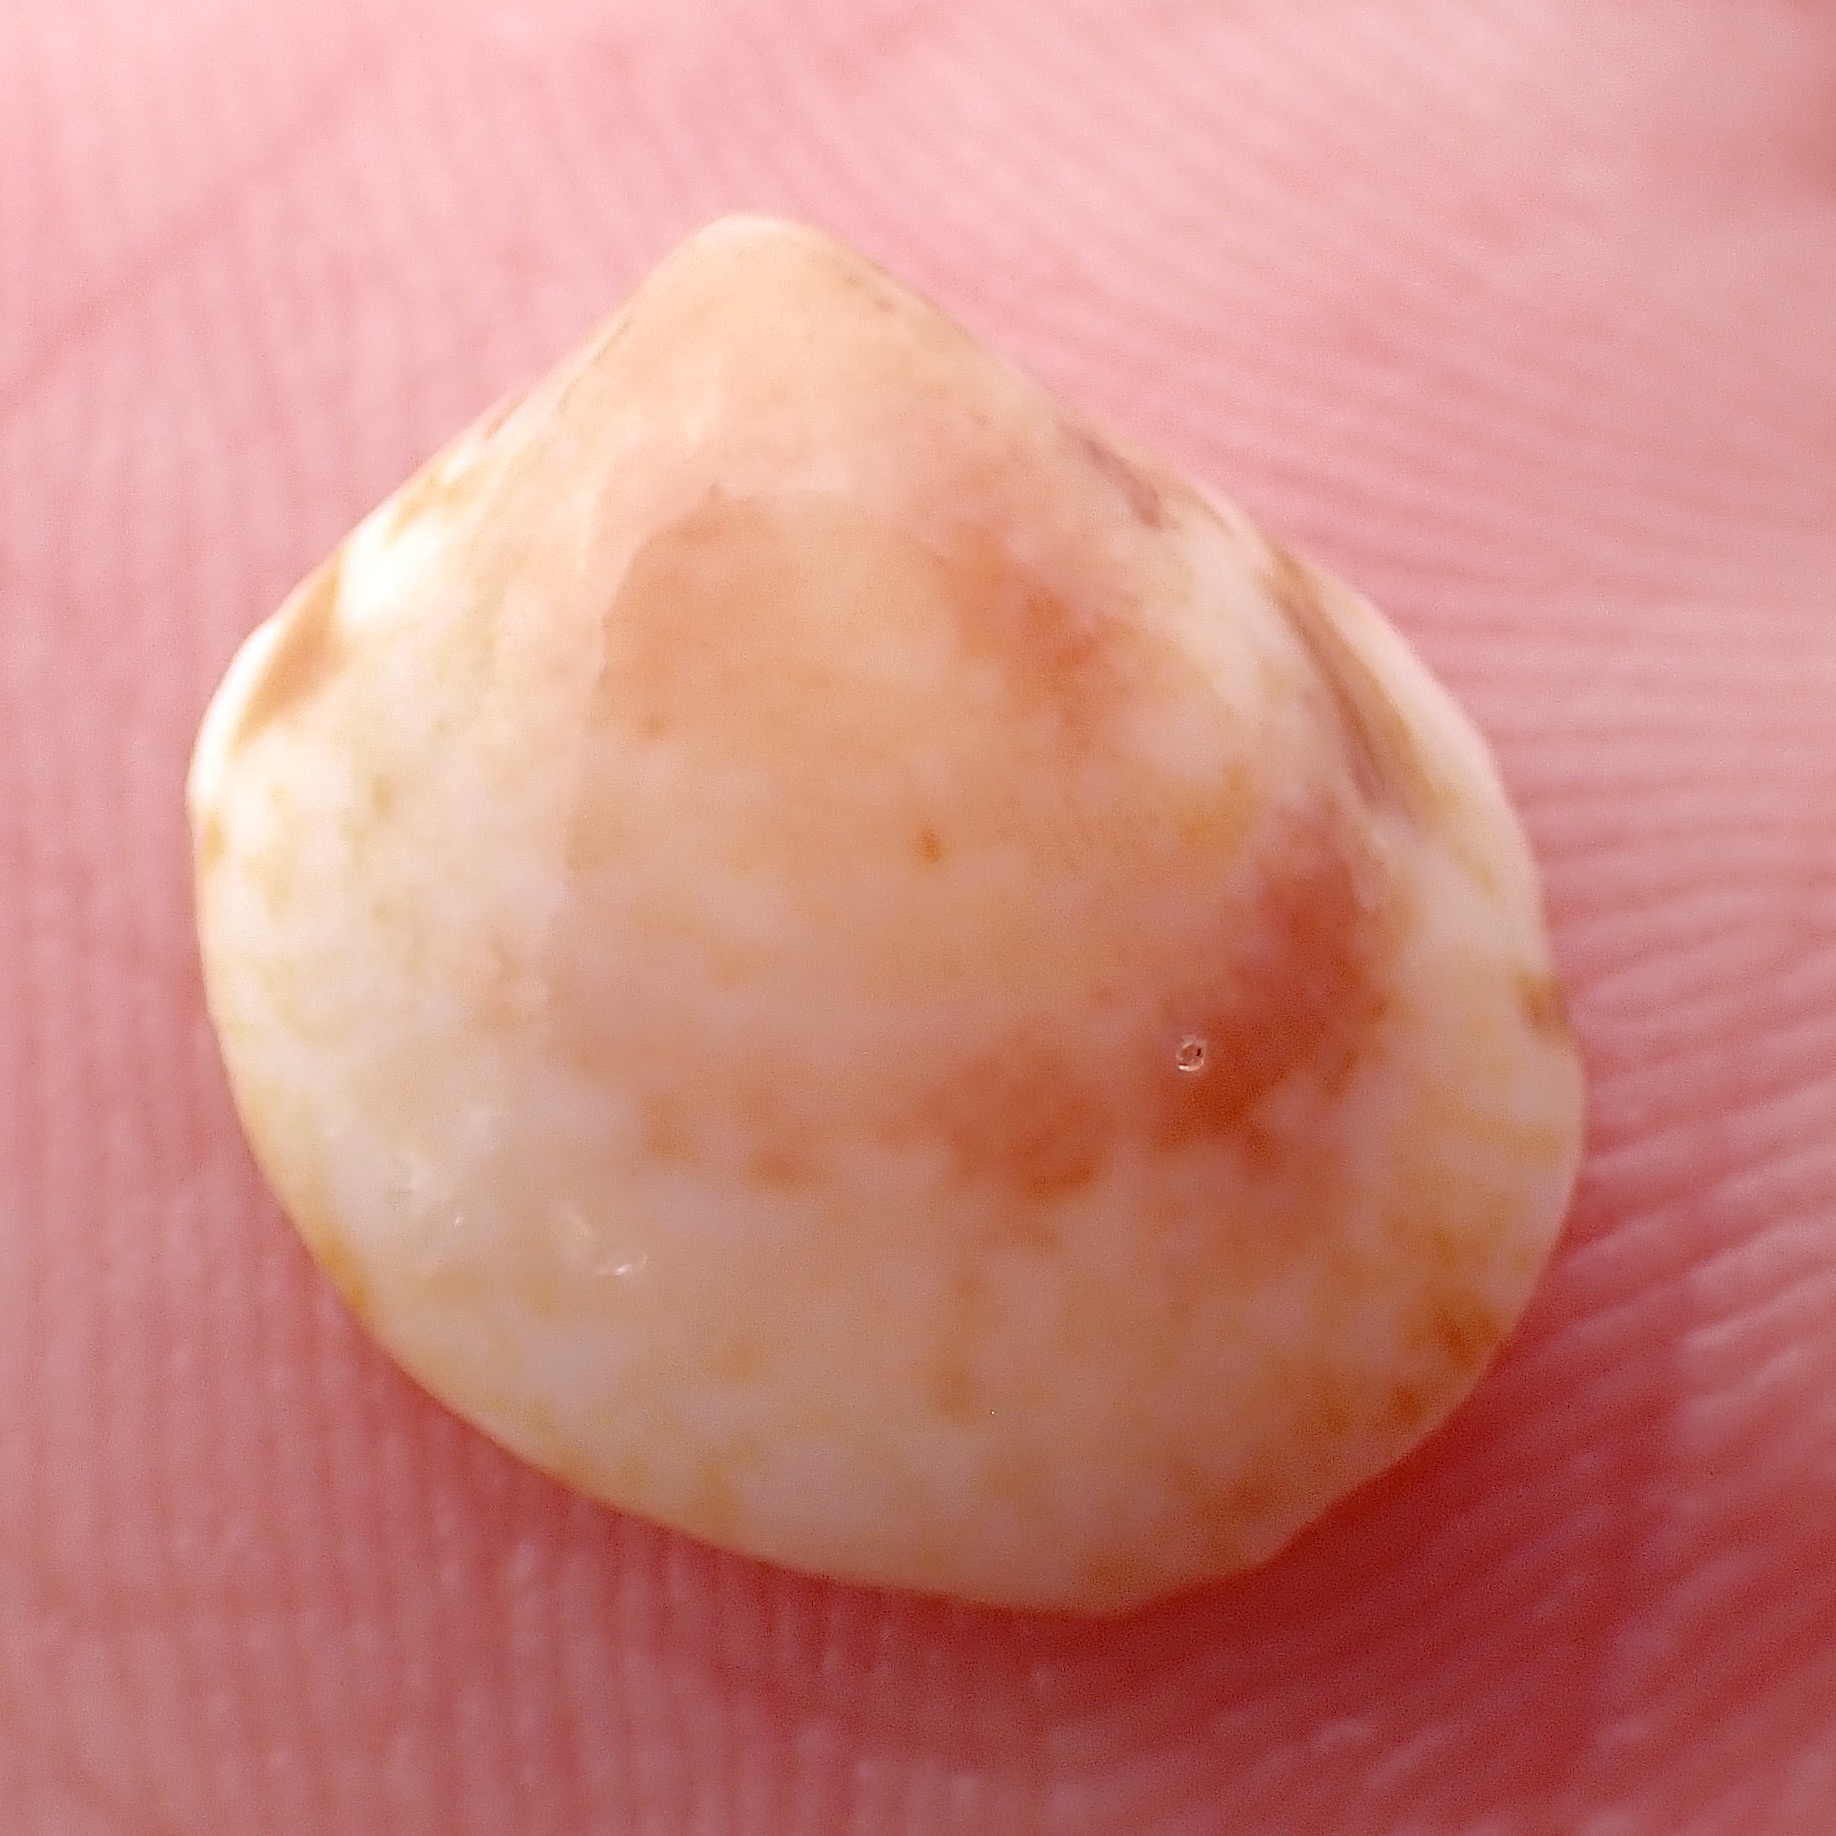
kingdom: Animalia
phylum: Mollusca
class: Bivalvia
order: Cardiida
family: Cardiidae
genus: Laevicardium
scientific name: Laevicardium pictum
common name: Painted eggcockle
